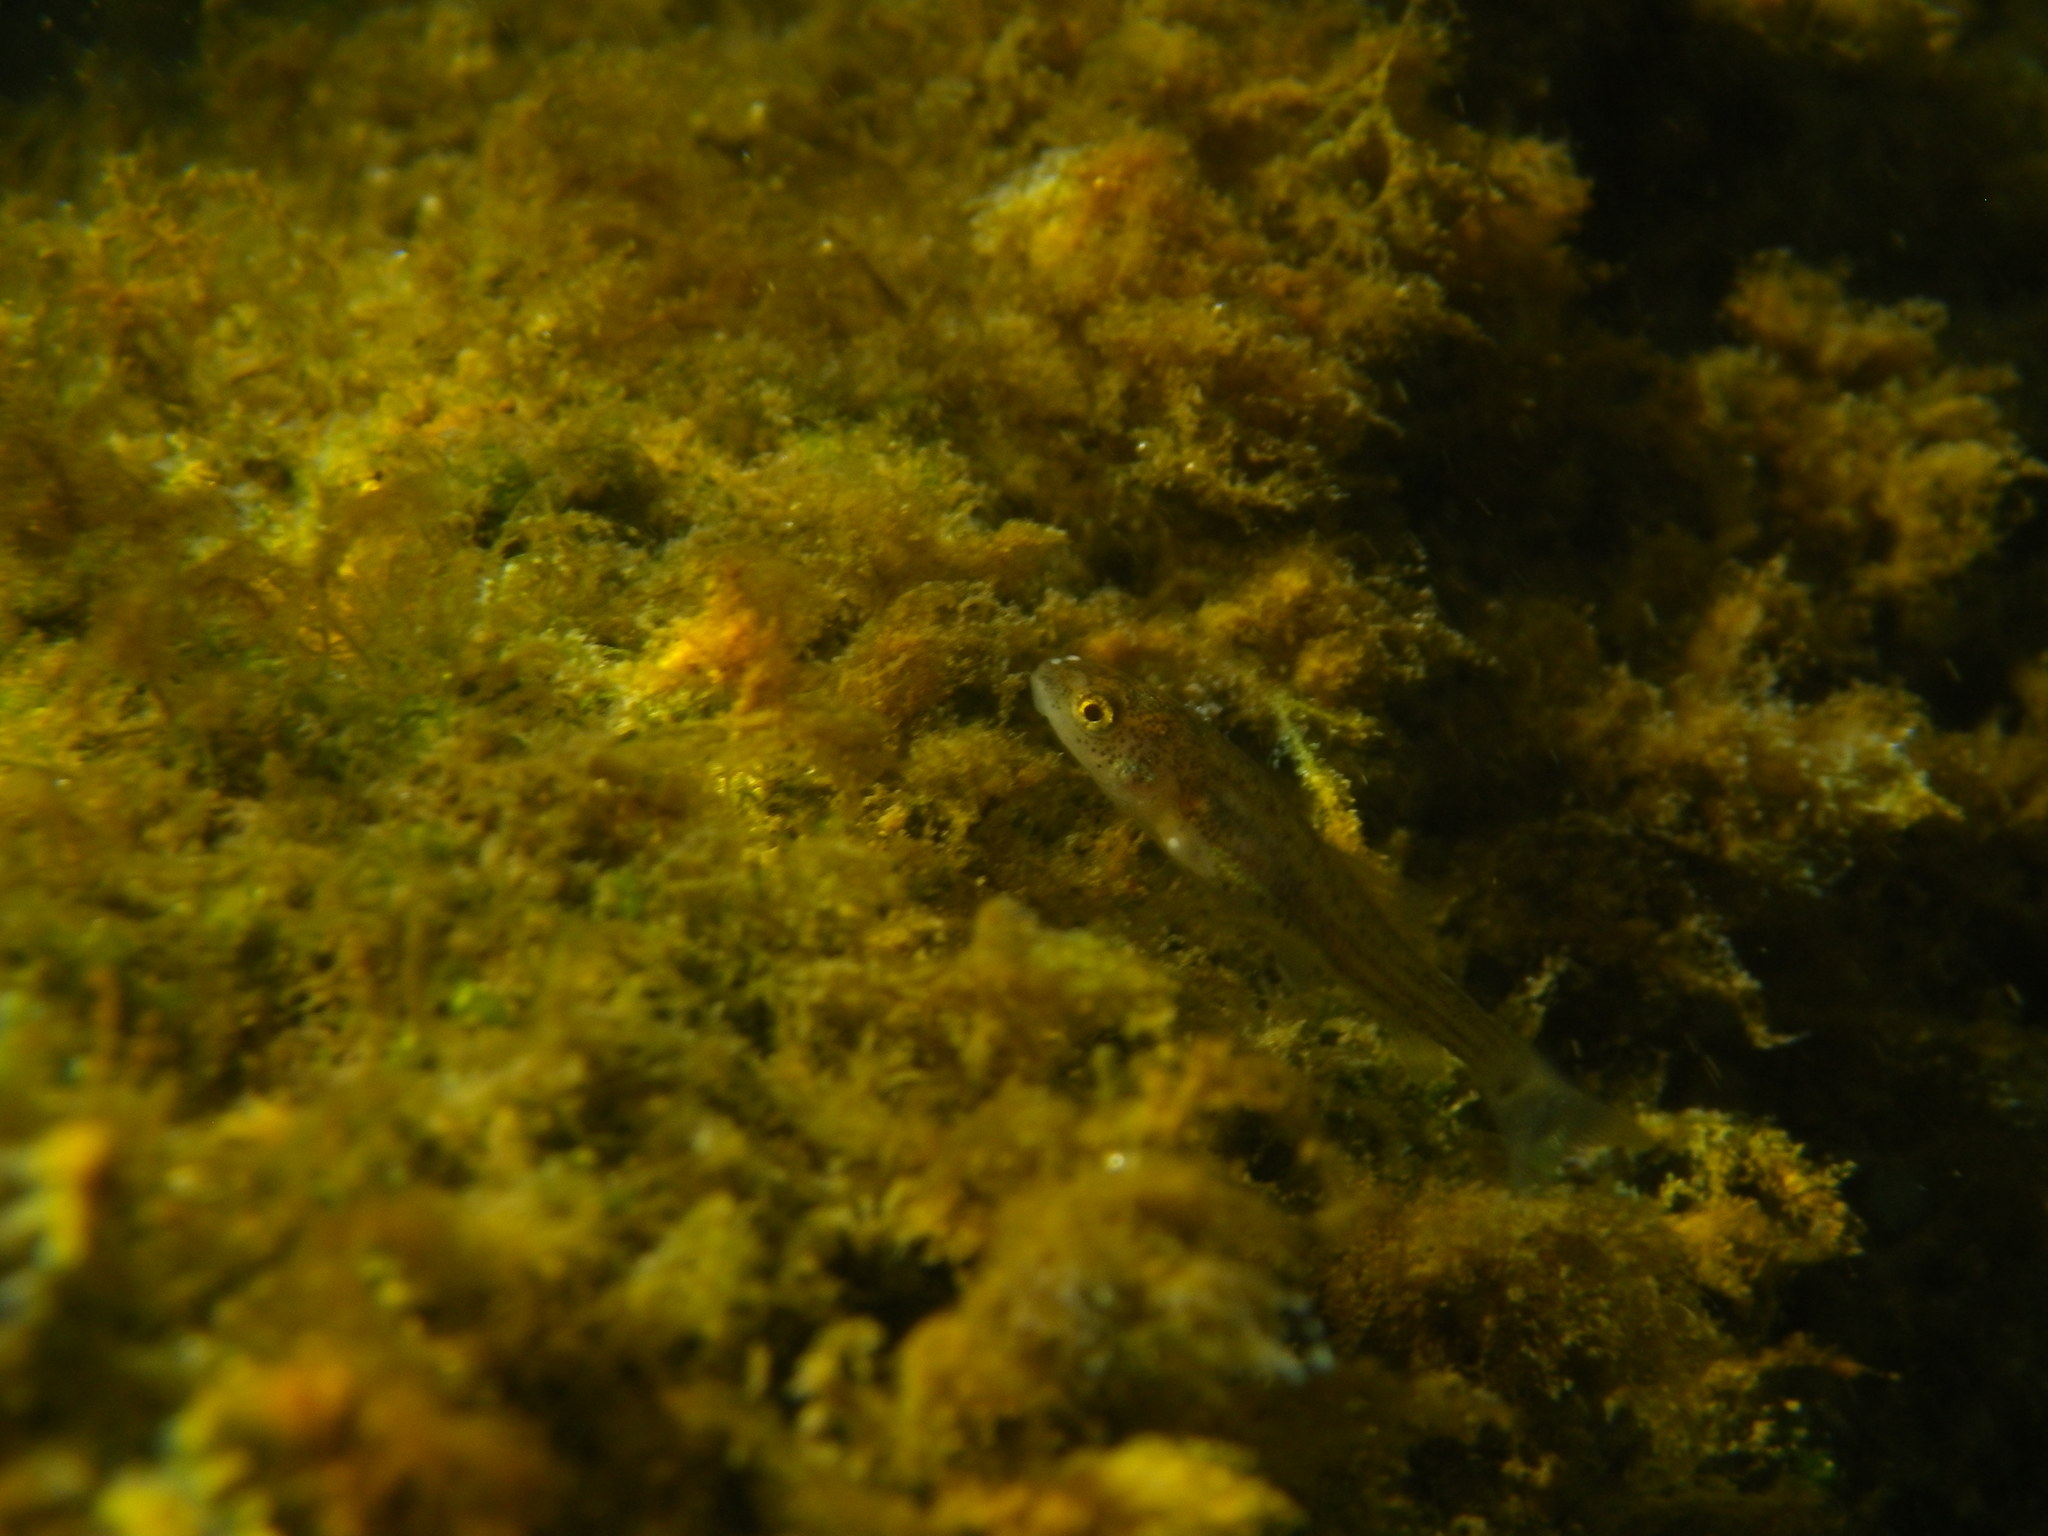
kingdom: Animalia
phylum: Chordata
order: Cypriniformes
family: Cyprinidae
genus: Gobio
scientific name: Gobio occitaniae
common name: Languedoc gudgeon
